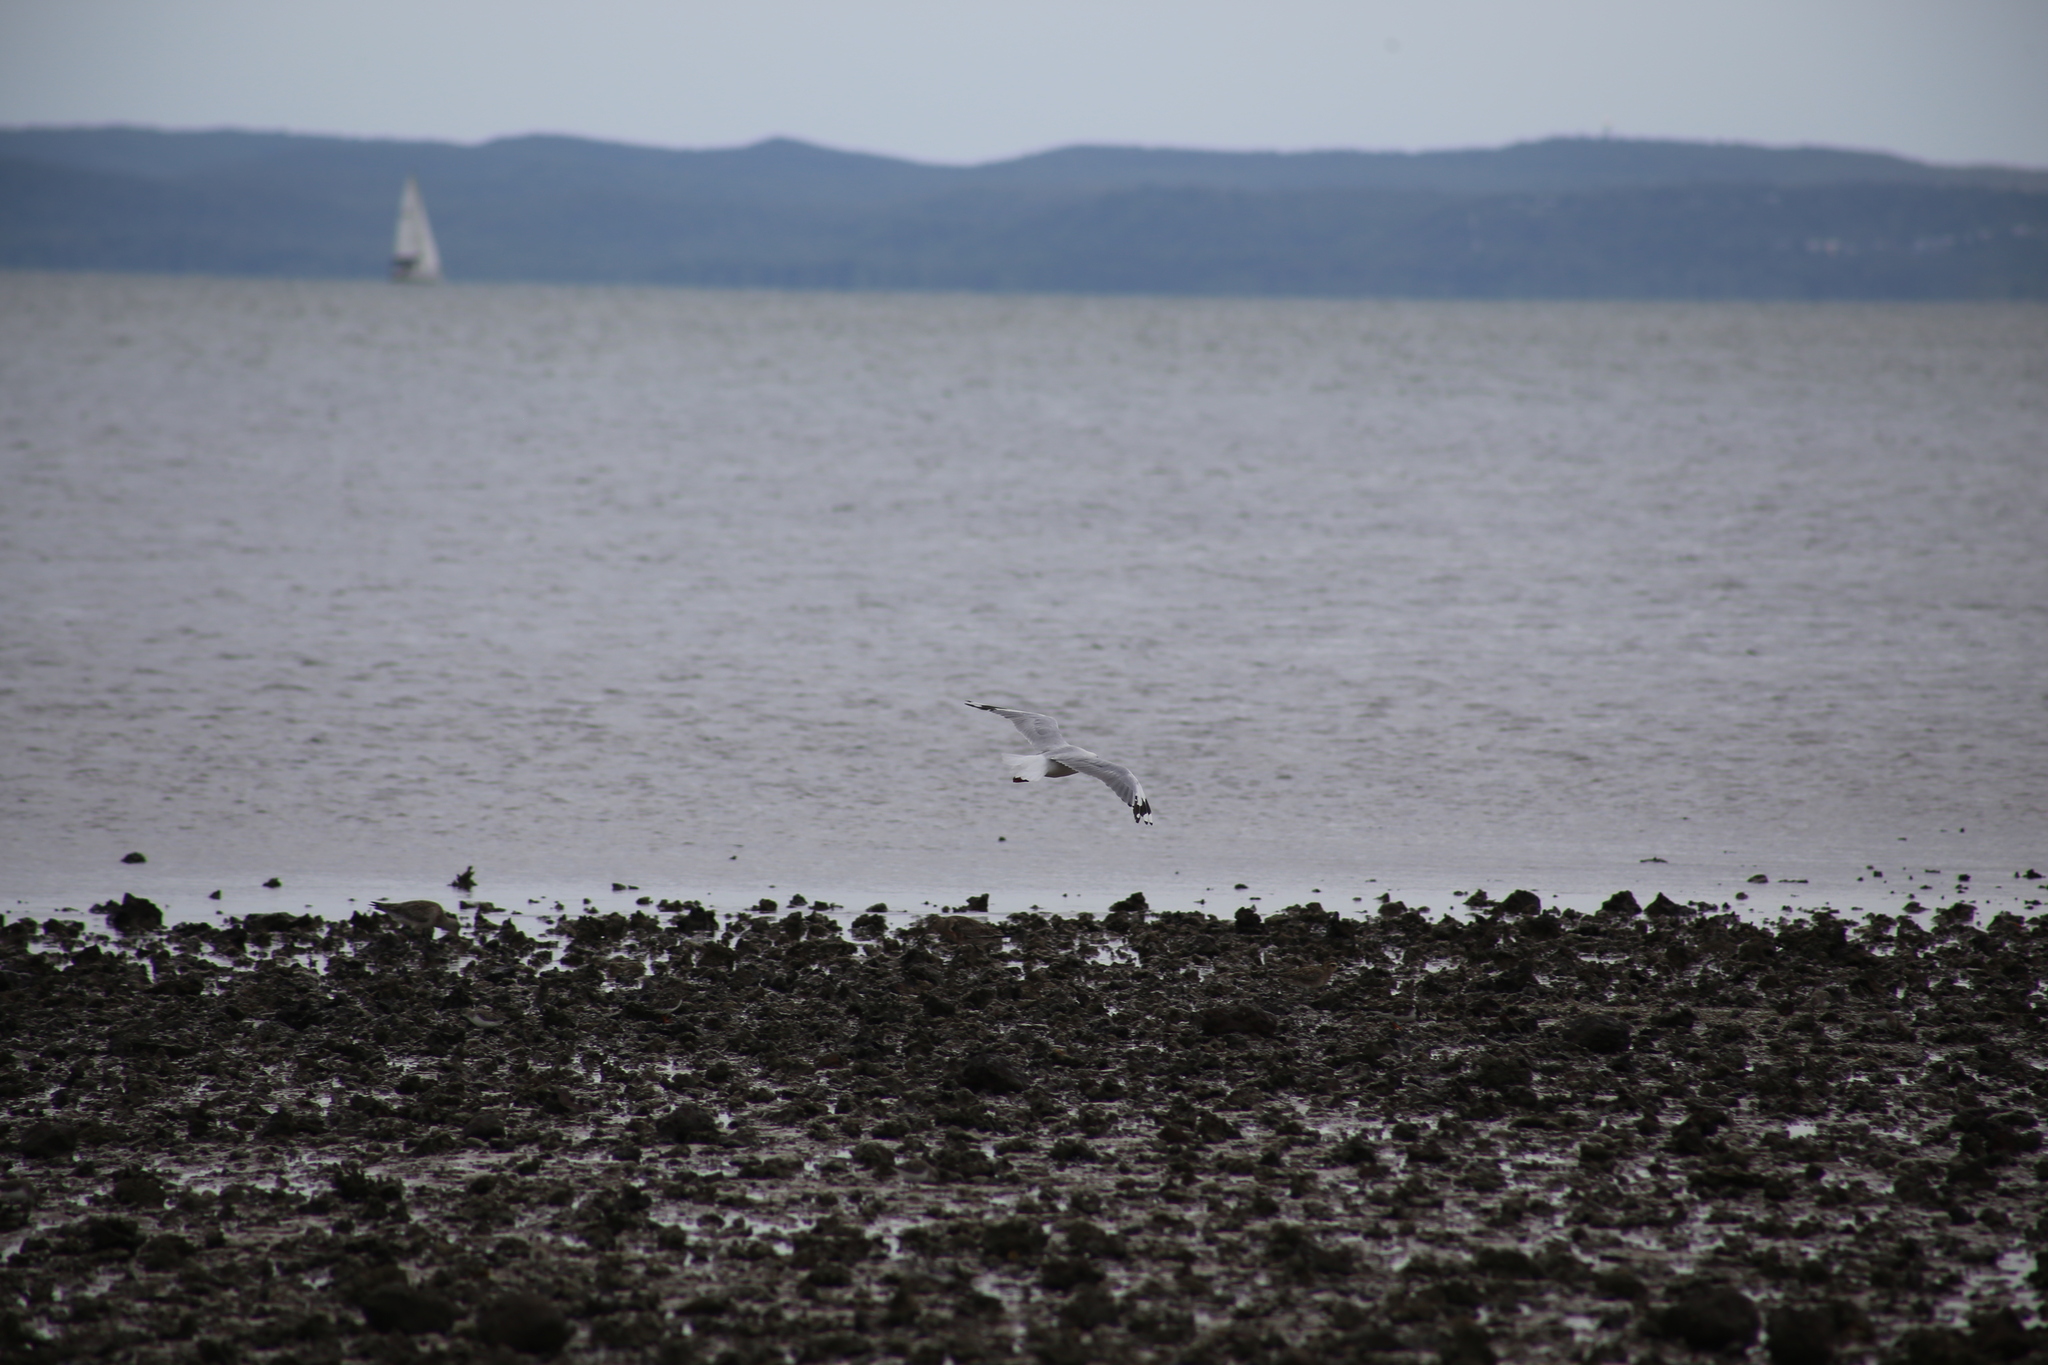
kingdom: Animalia
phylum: Chordata
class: Aves
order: Charadriiformes
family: Laridae
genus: Chroicocephalus
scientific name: Chroicocephalus novaehollandiae
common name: Silver gull
